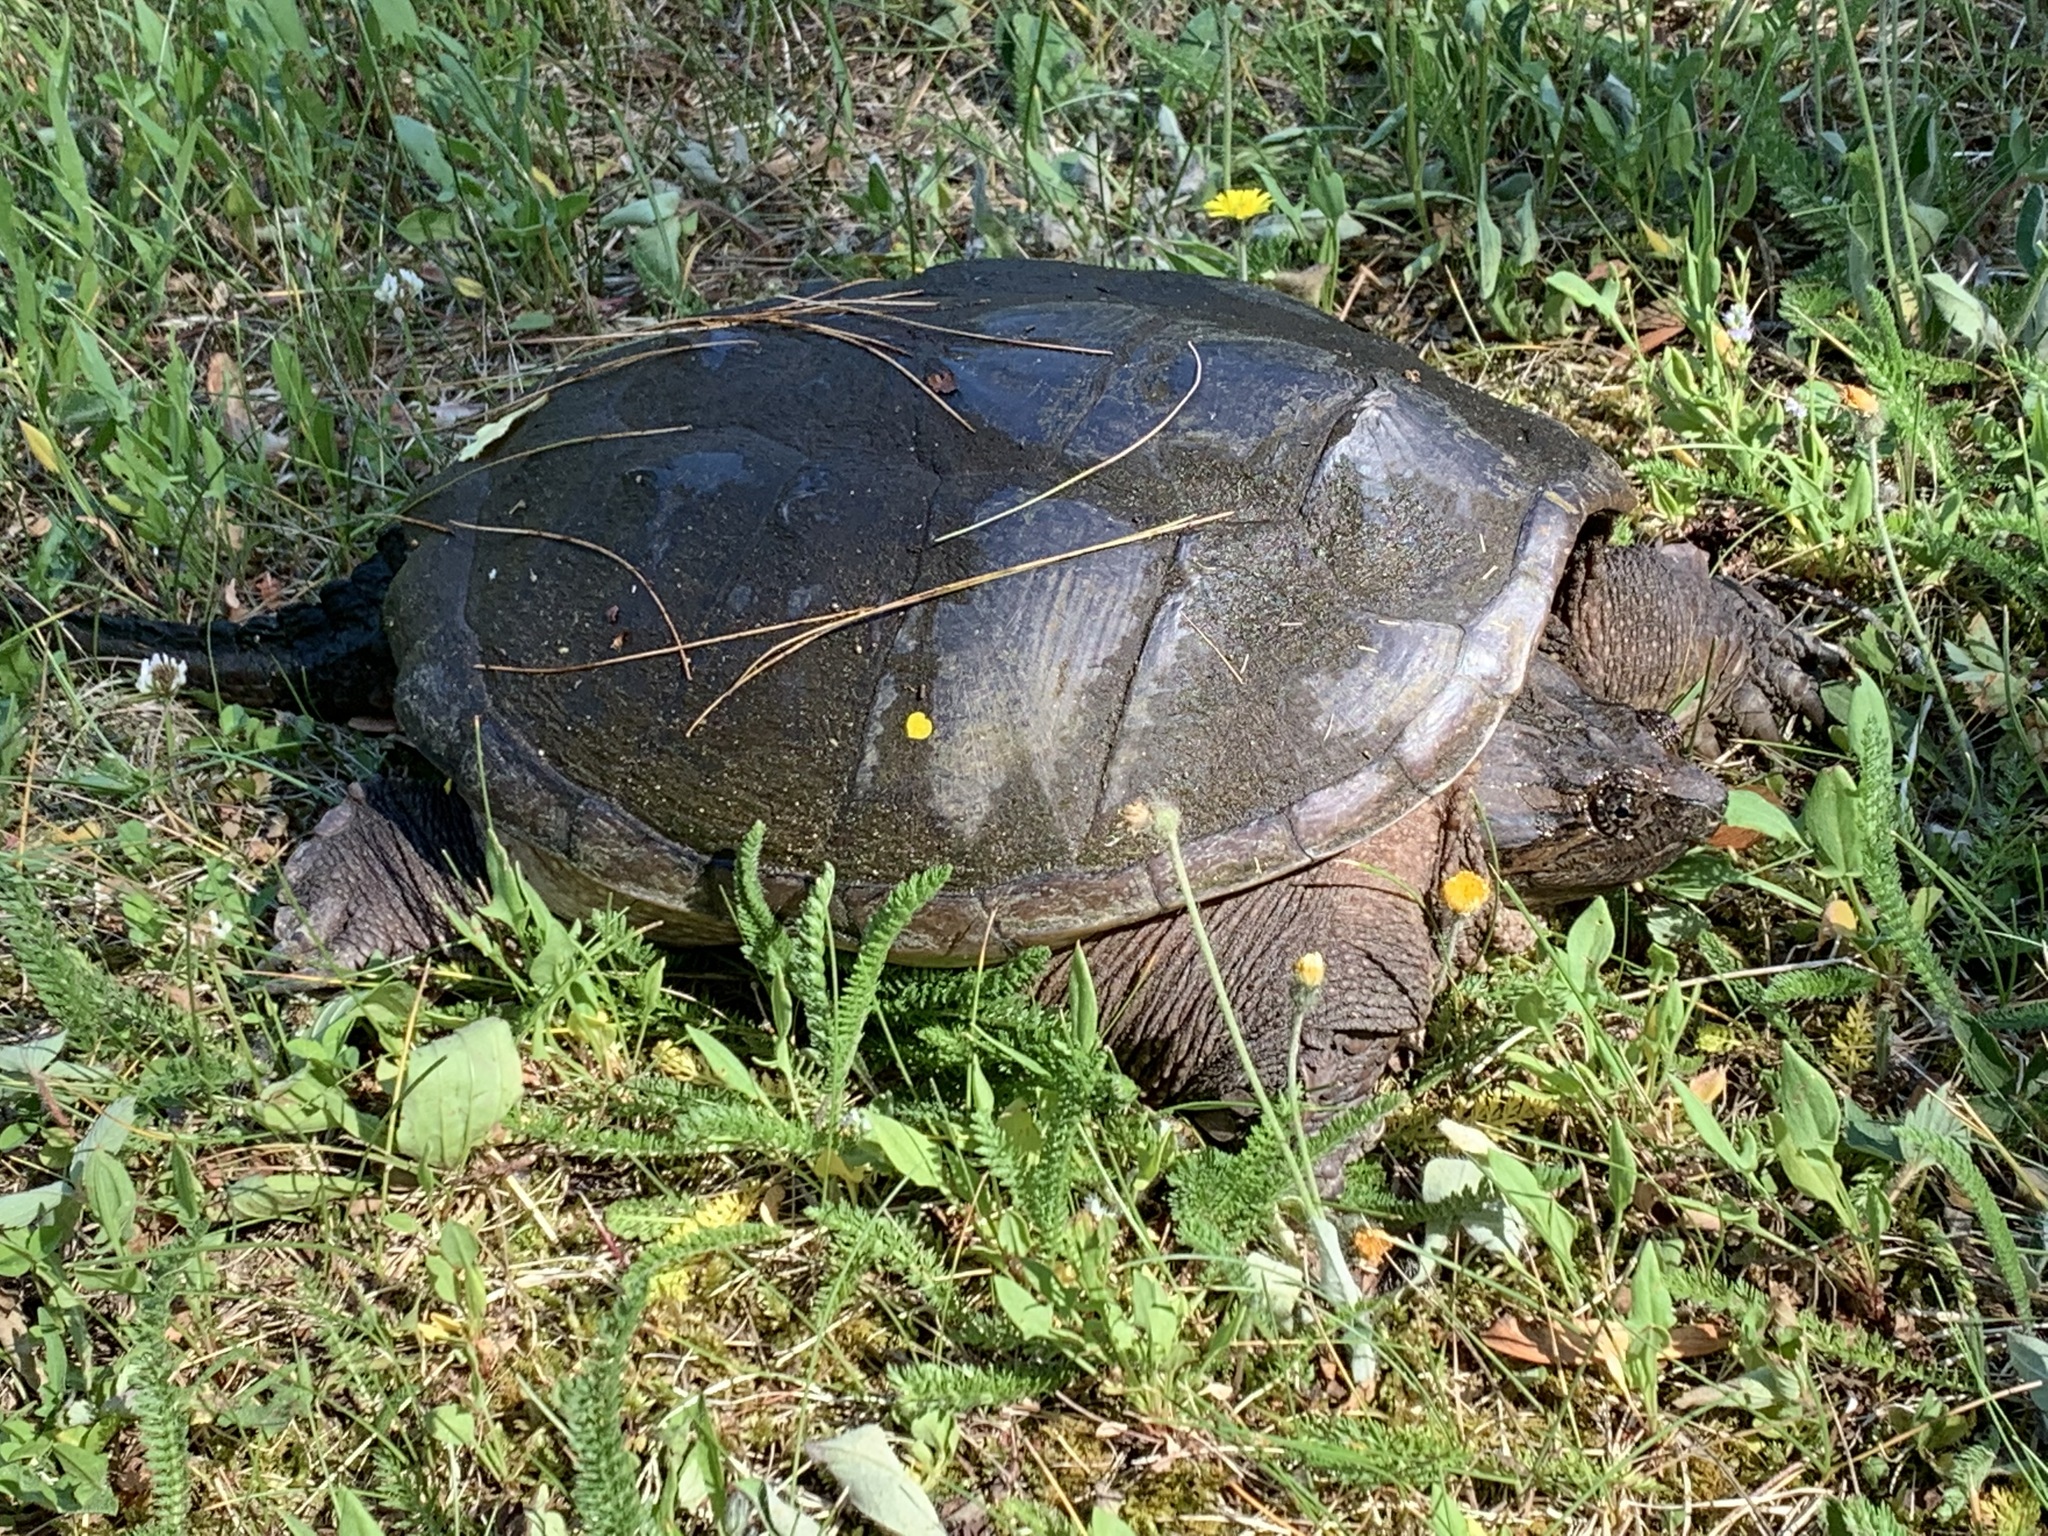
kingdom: Animalia
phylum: Chordata
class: Testudines
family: Chelydridae
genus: Chelydra
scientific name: Chelydra serpentina
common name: Common snapping turtle
